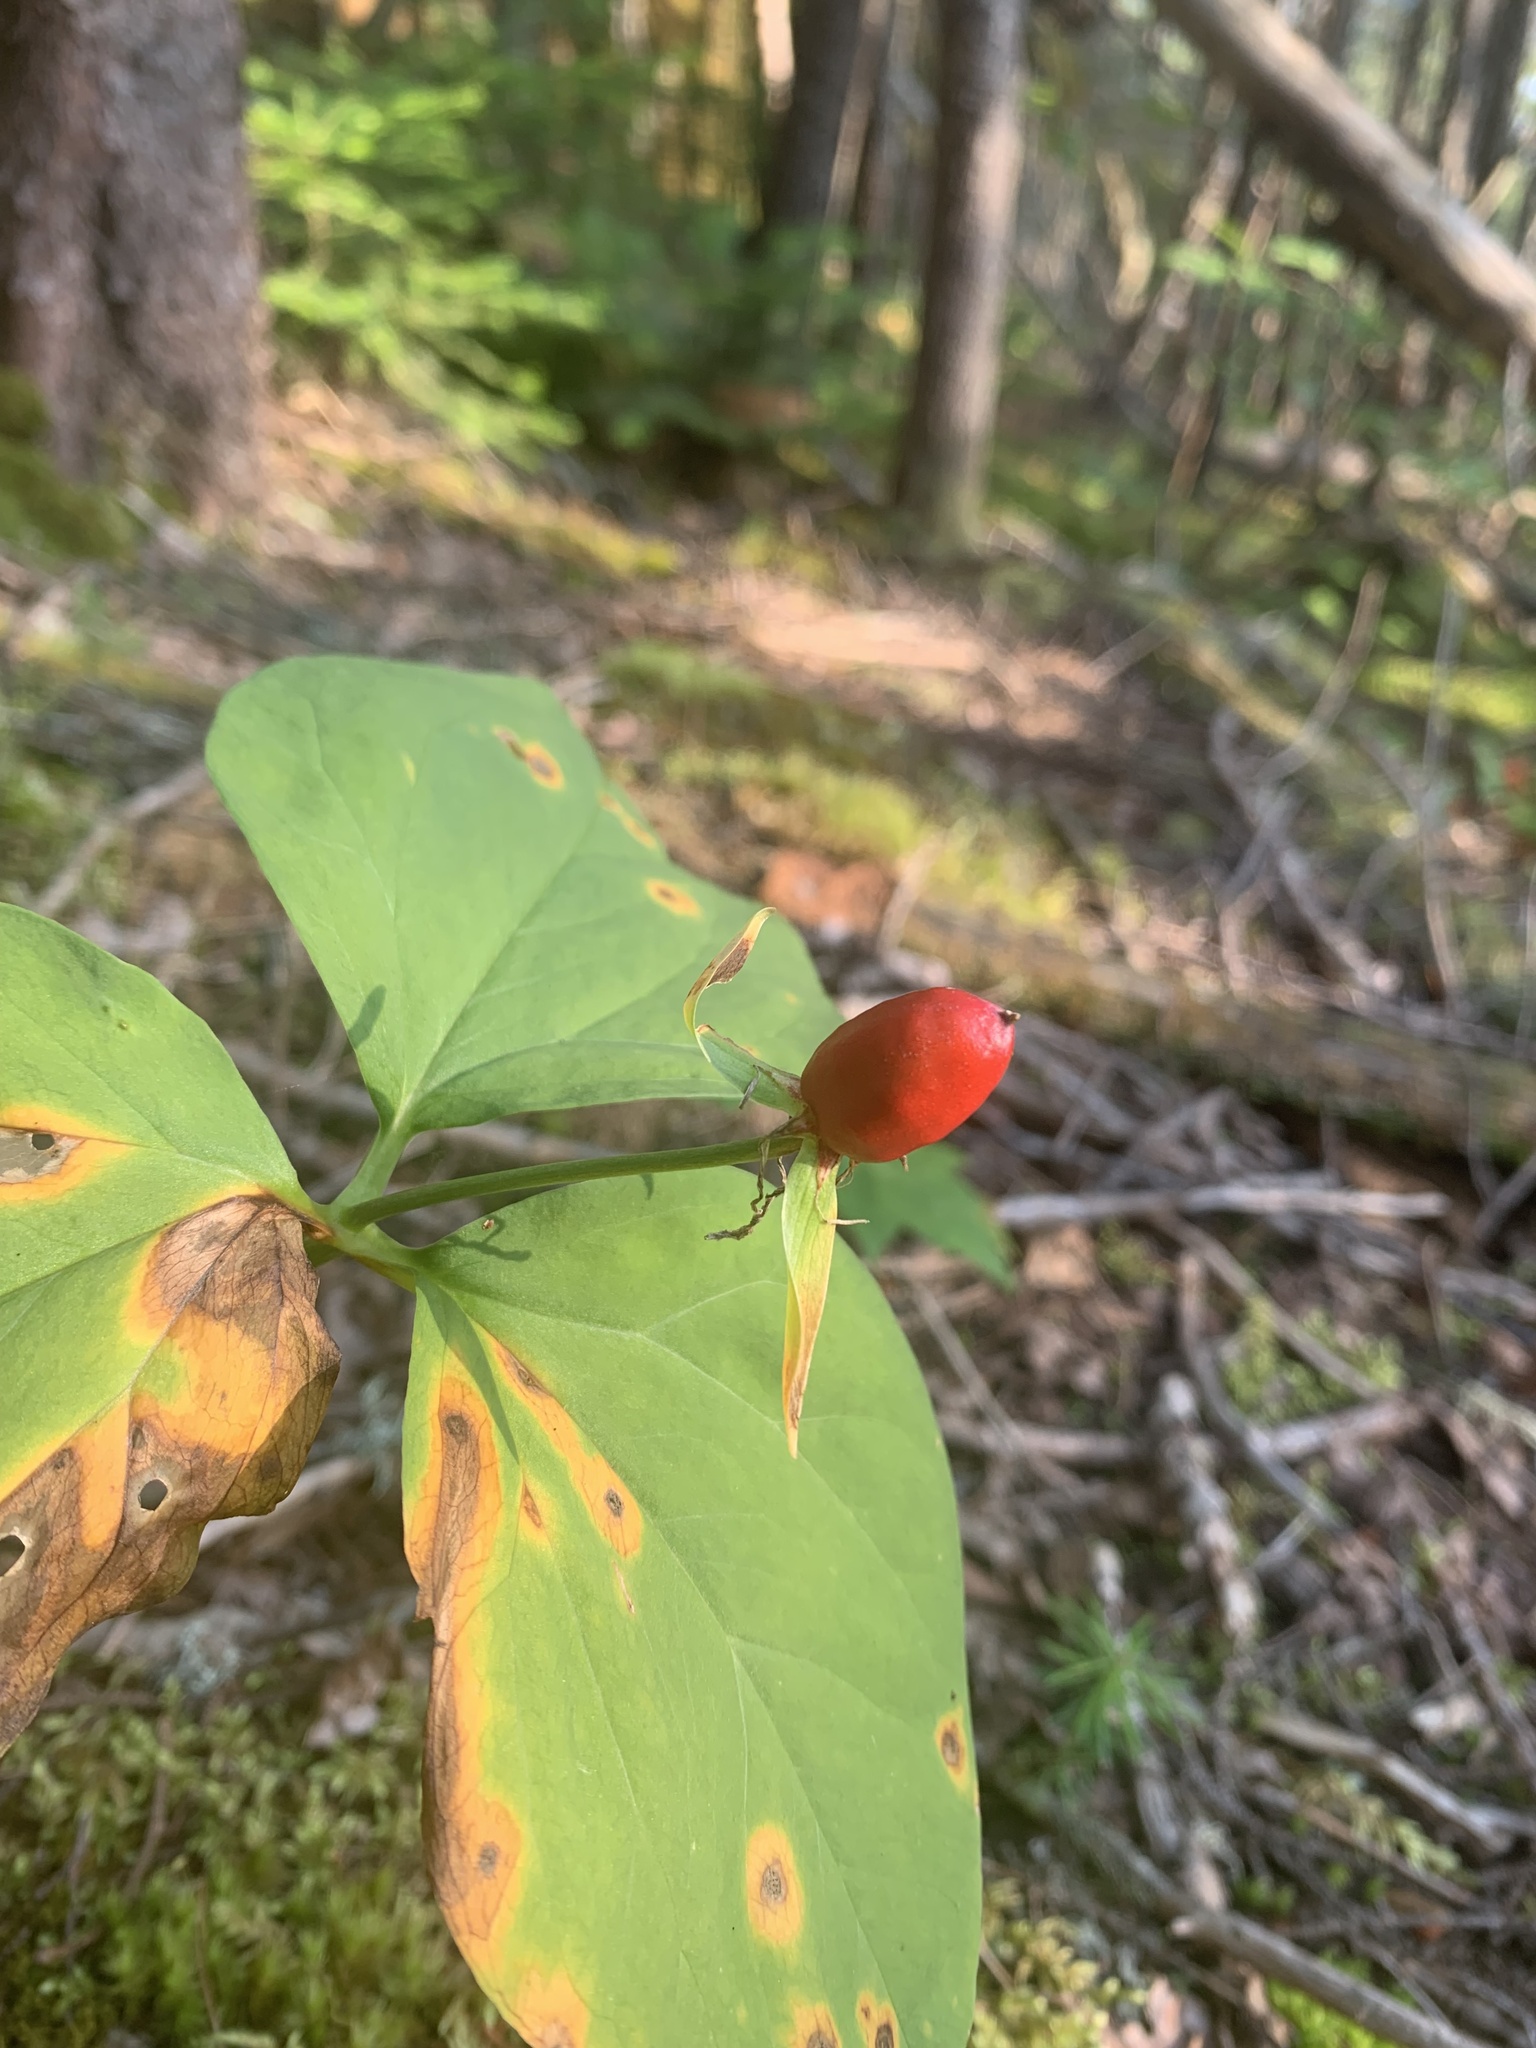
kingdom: Plantae
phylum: Tracheophyta
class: Liliopsida
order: Liliales
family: Melanthiaceae
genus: Trillium
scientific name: Trillium undulatum
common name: Paint trillium
